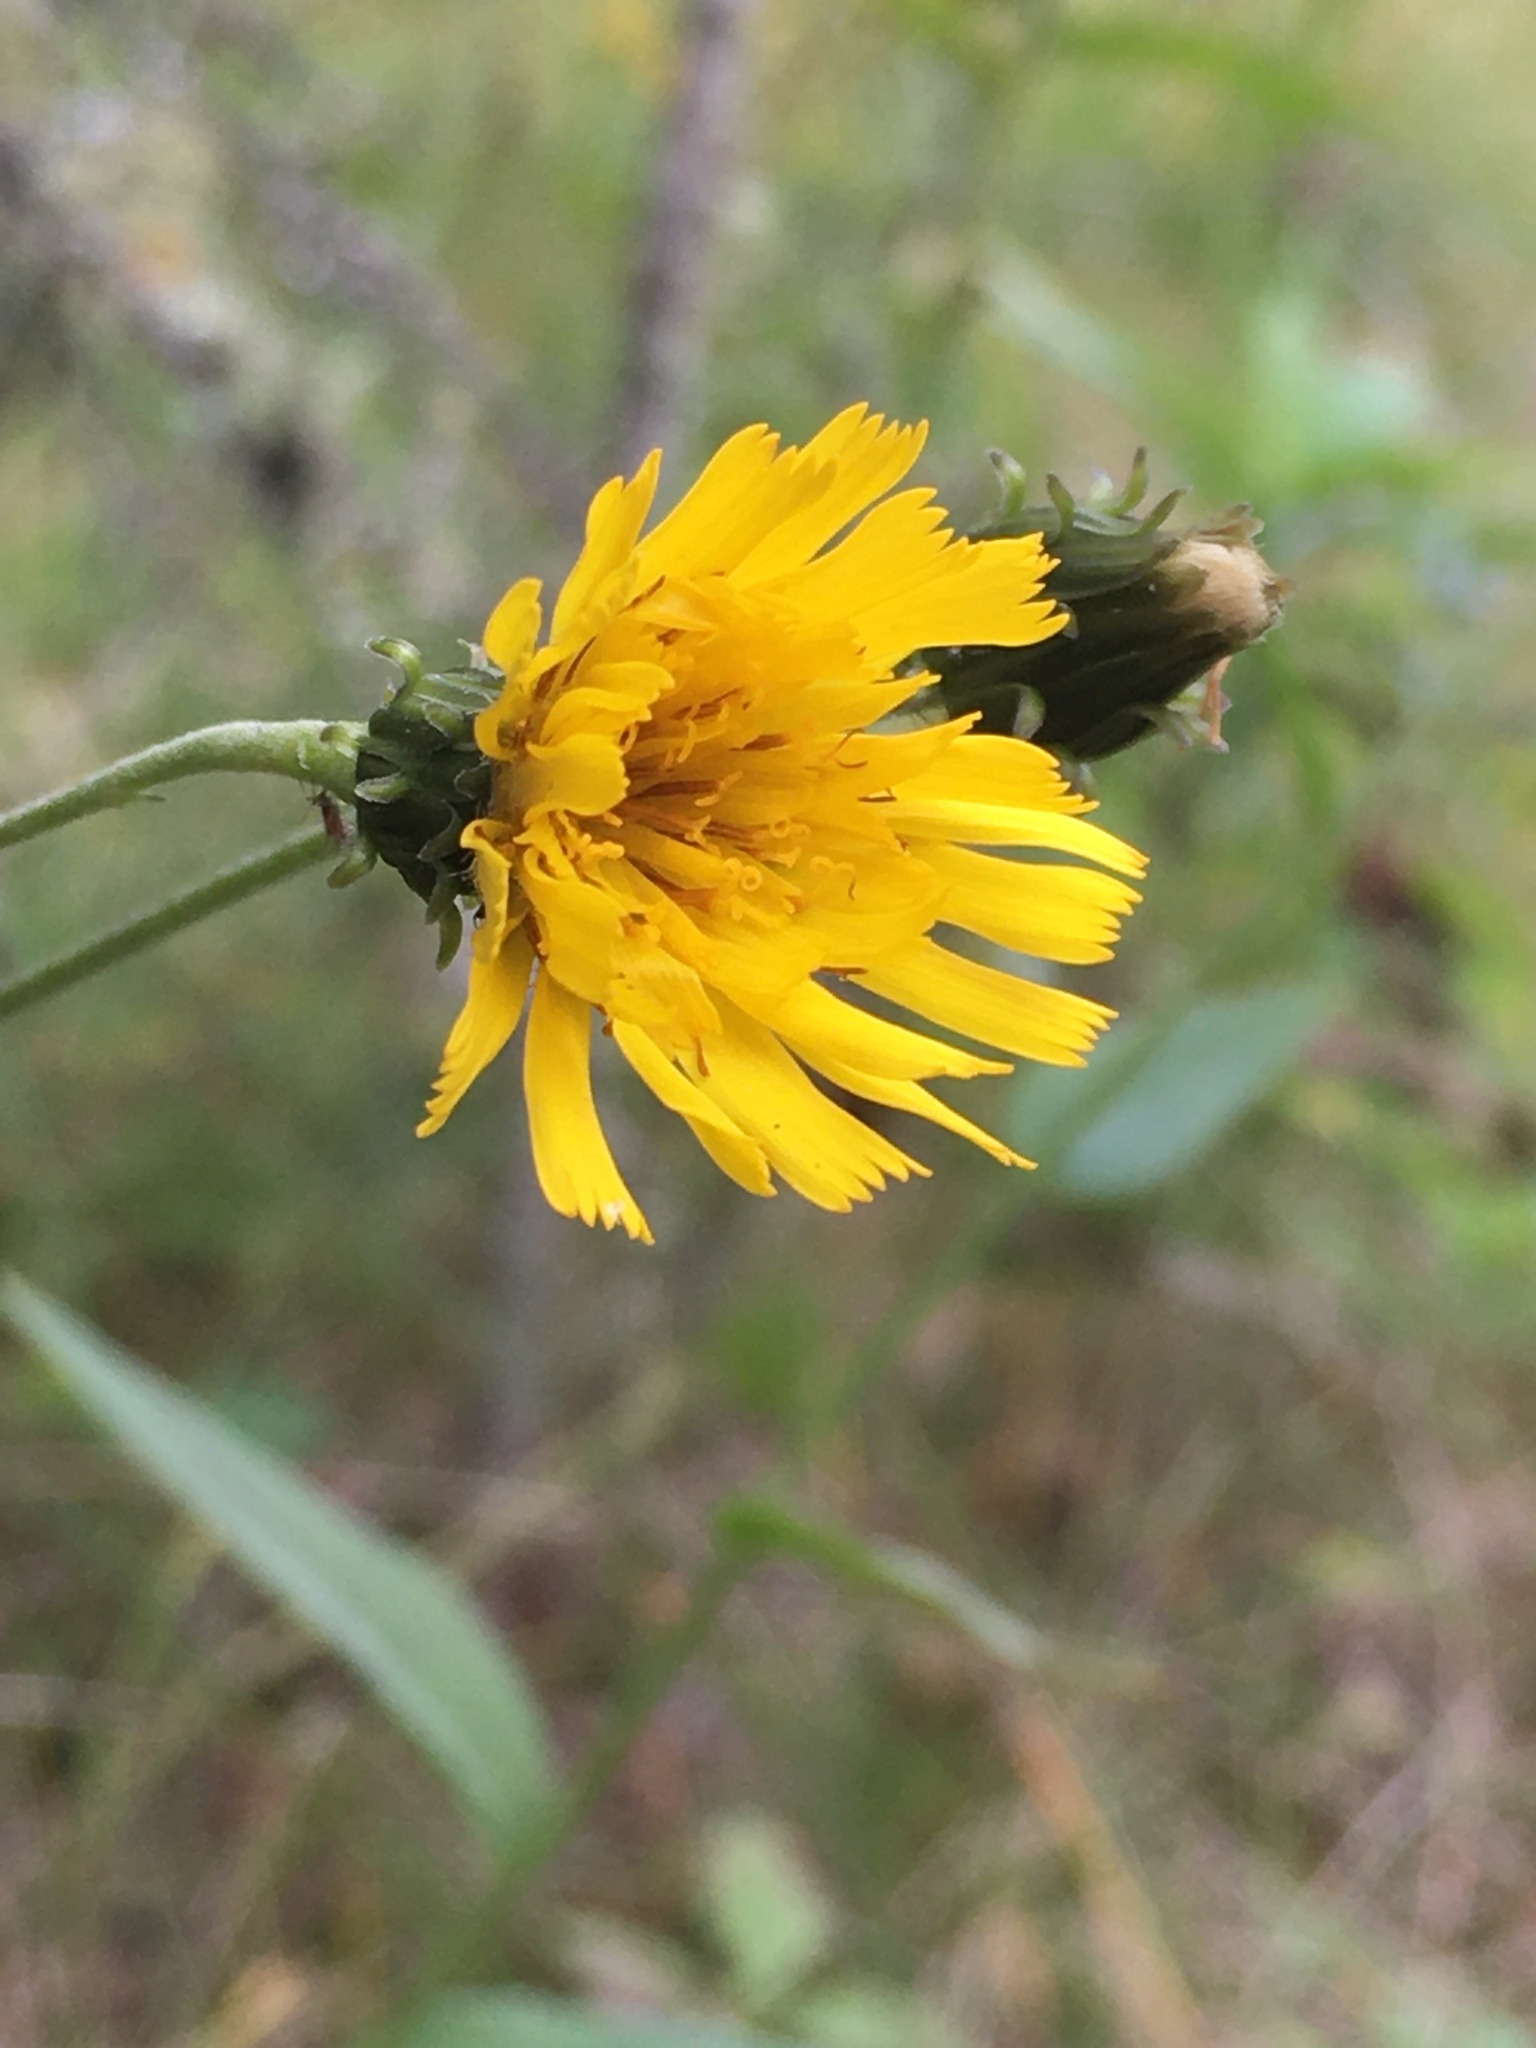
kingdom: Plantae
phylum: Tracheophyta
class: Magnoliopsida
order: Asterales
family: Asteraceae
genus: Hieracium
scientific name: Hieracium umbellatum
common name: Northern hawkweed
